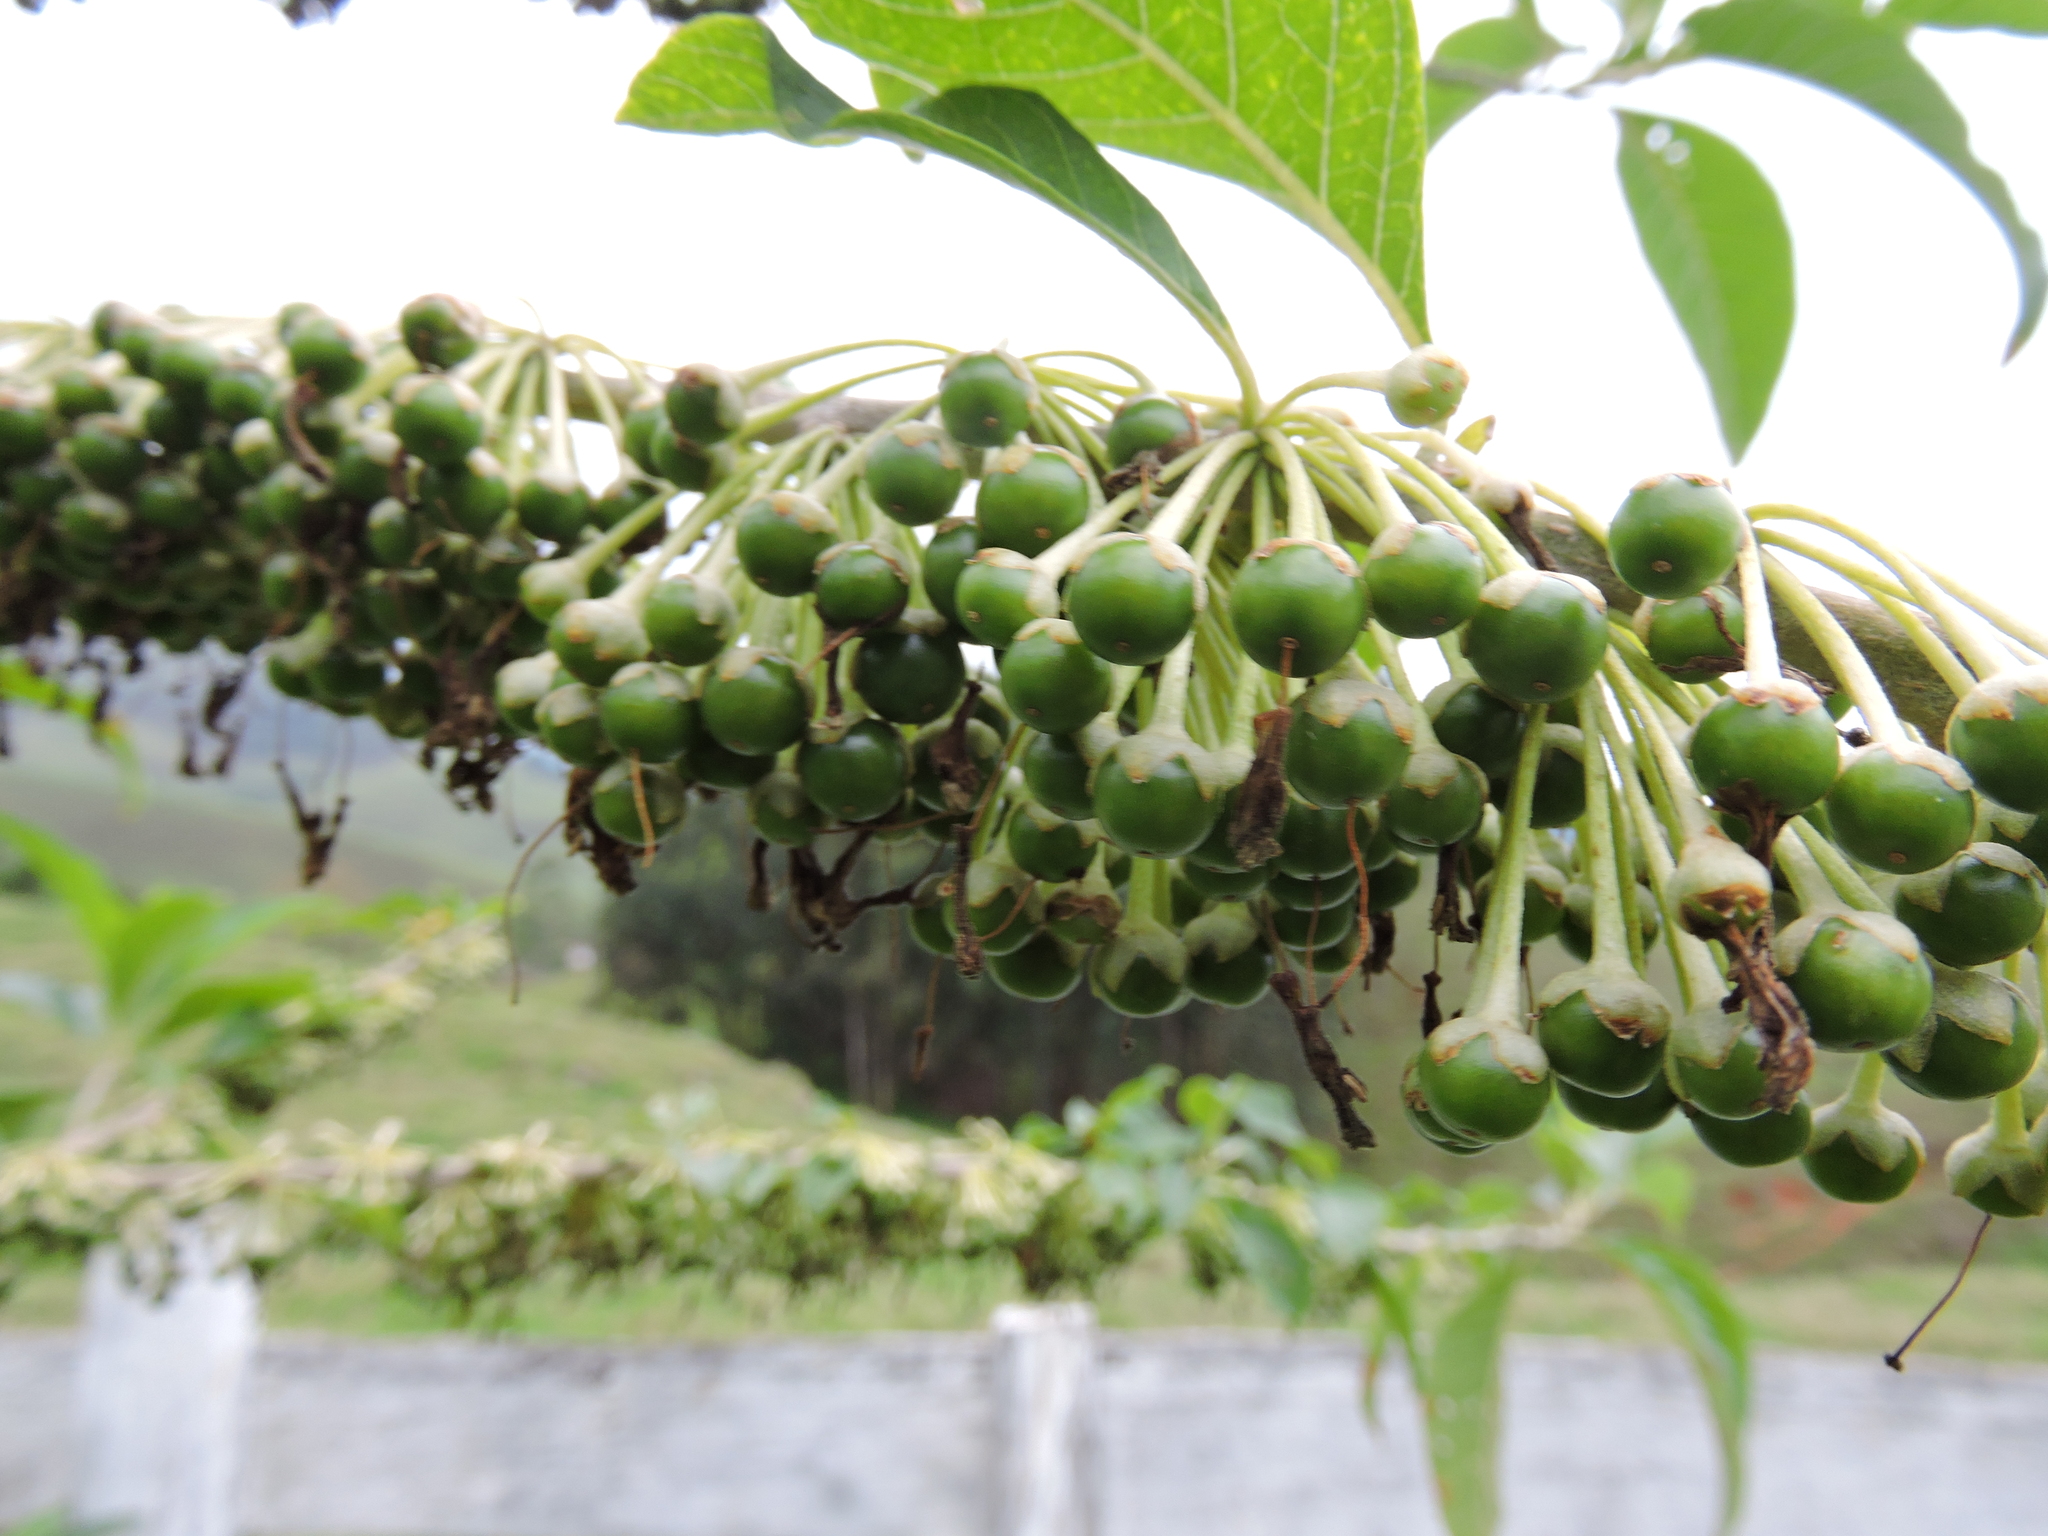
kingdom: Plantae
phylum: Tracheophyta
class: Magnoliopsida
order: Solanales
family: Solanaceae
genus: Iochroma
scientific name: Iochroma arborescens
